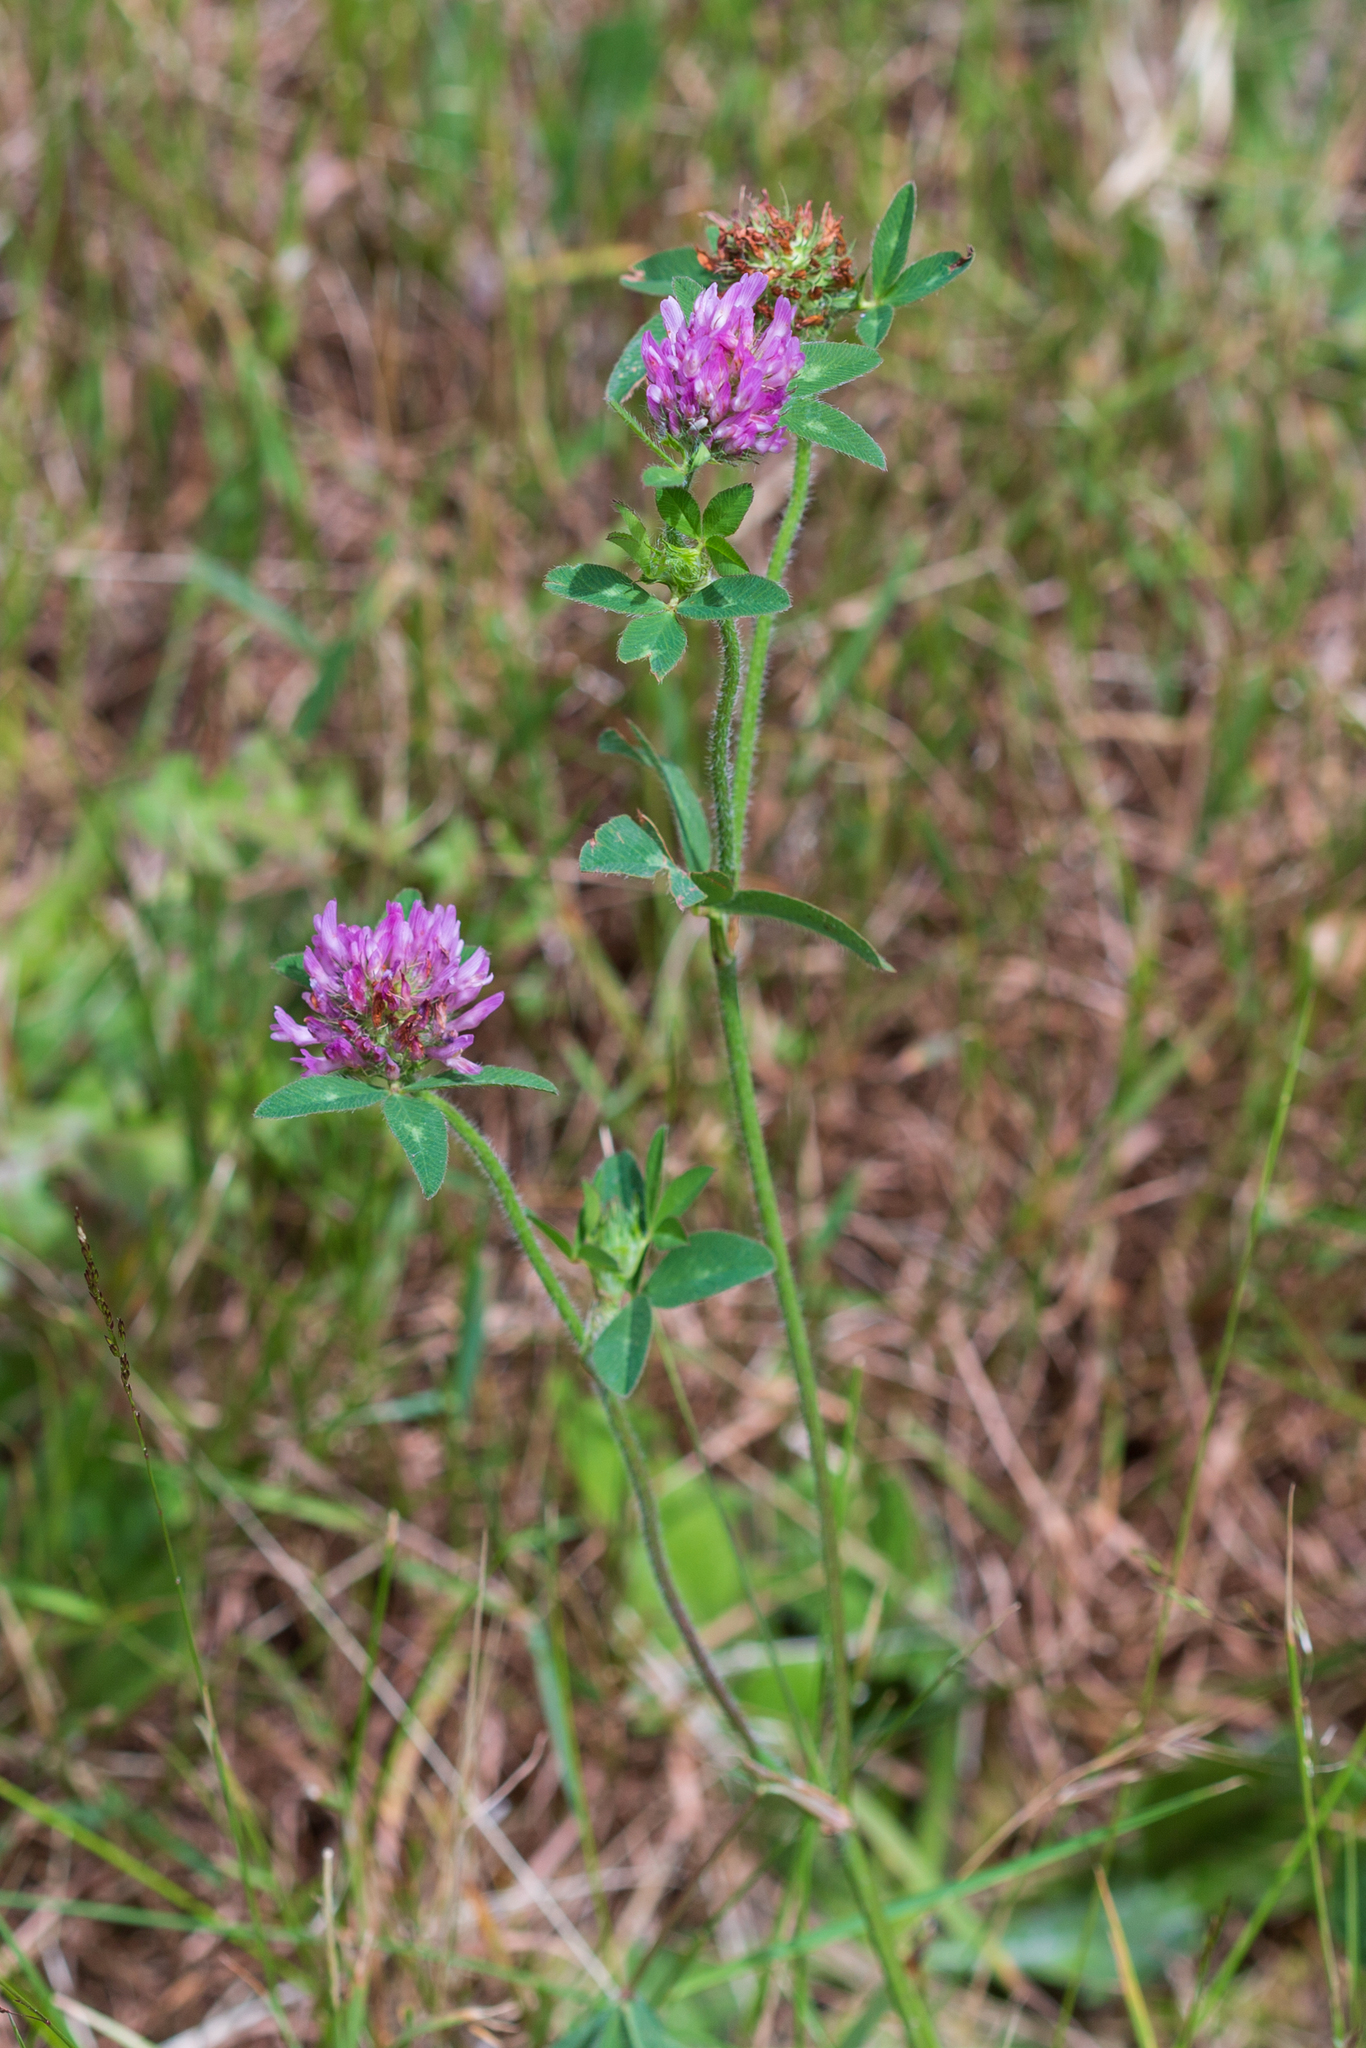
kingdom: Plantae
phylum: Tracheophyta
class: Magnoliopsida
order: Fabales
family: Fabaceae
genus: Trifolium
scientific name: Trifolium pratense
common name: Red clover
